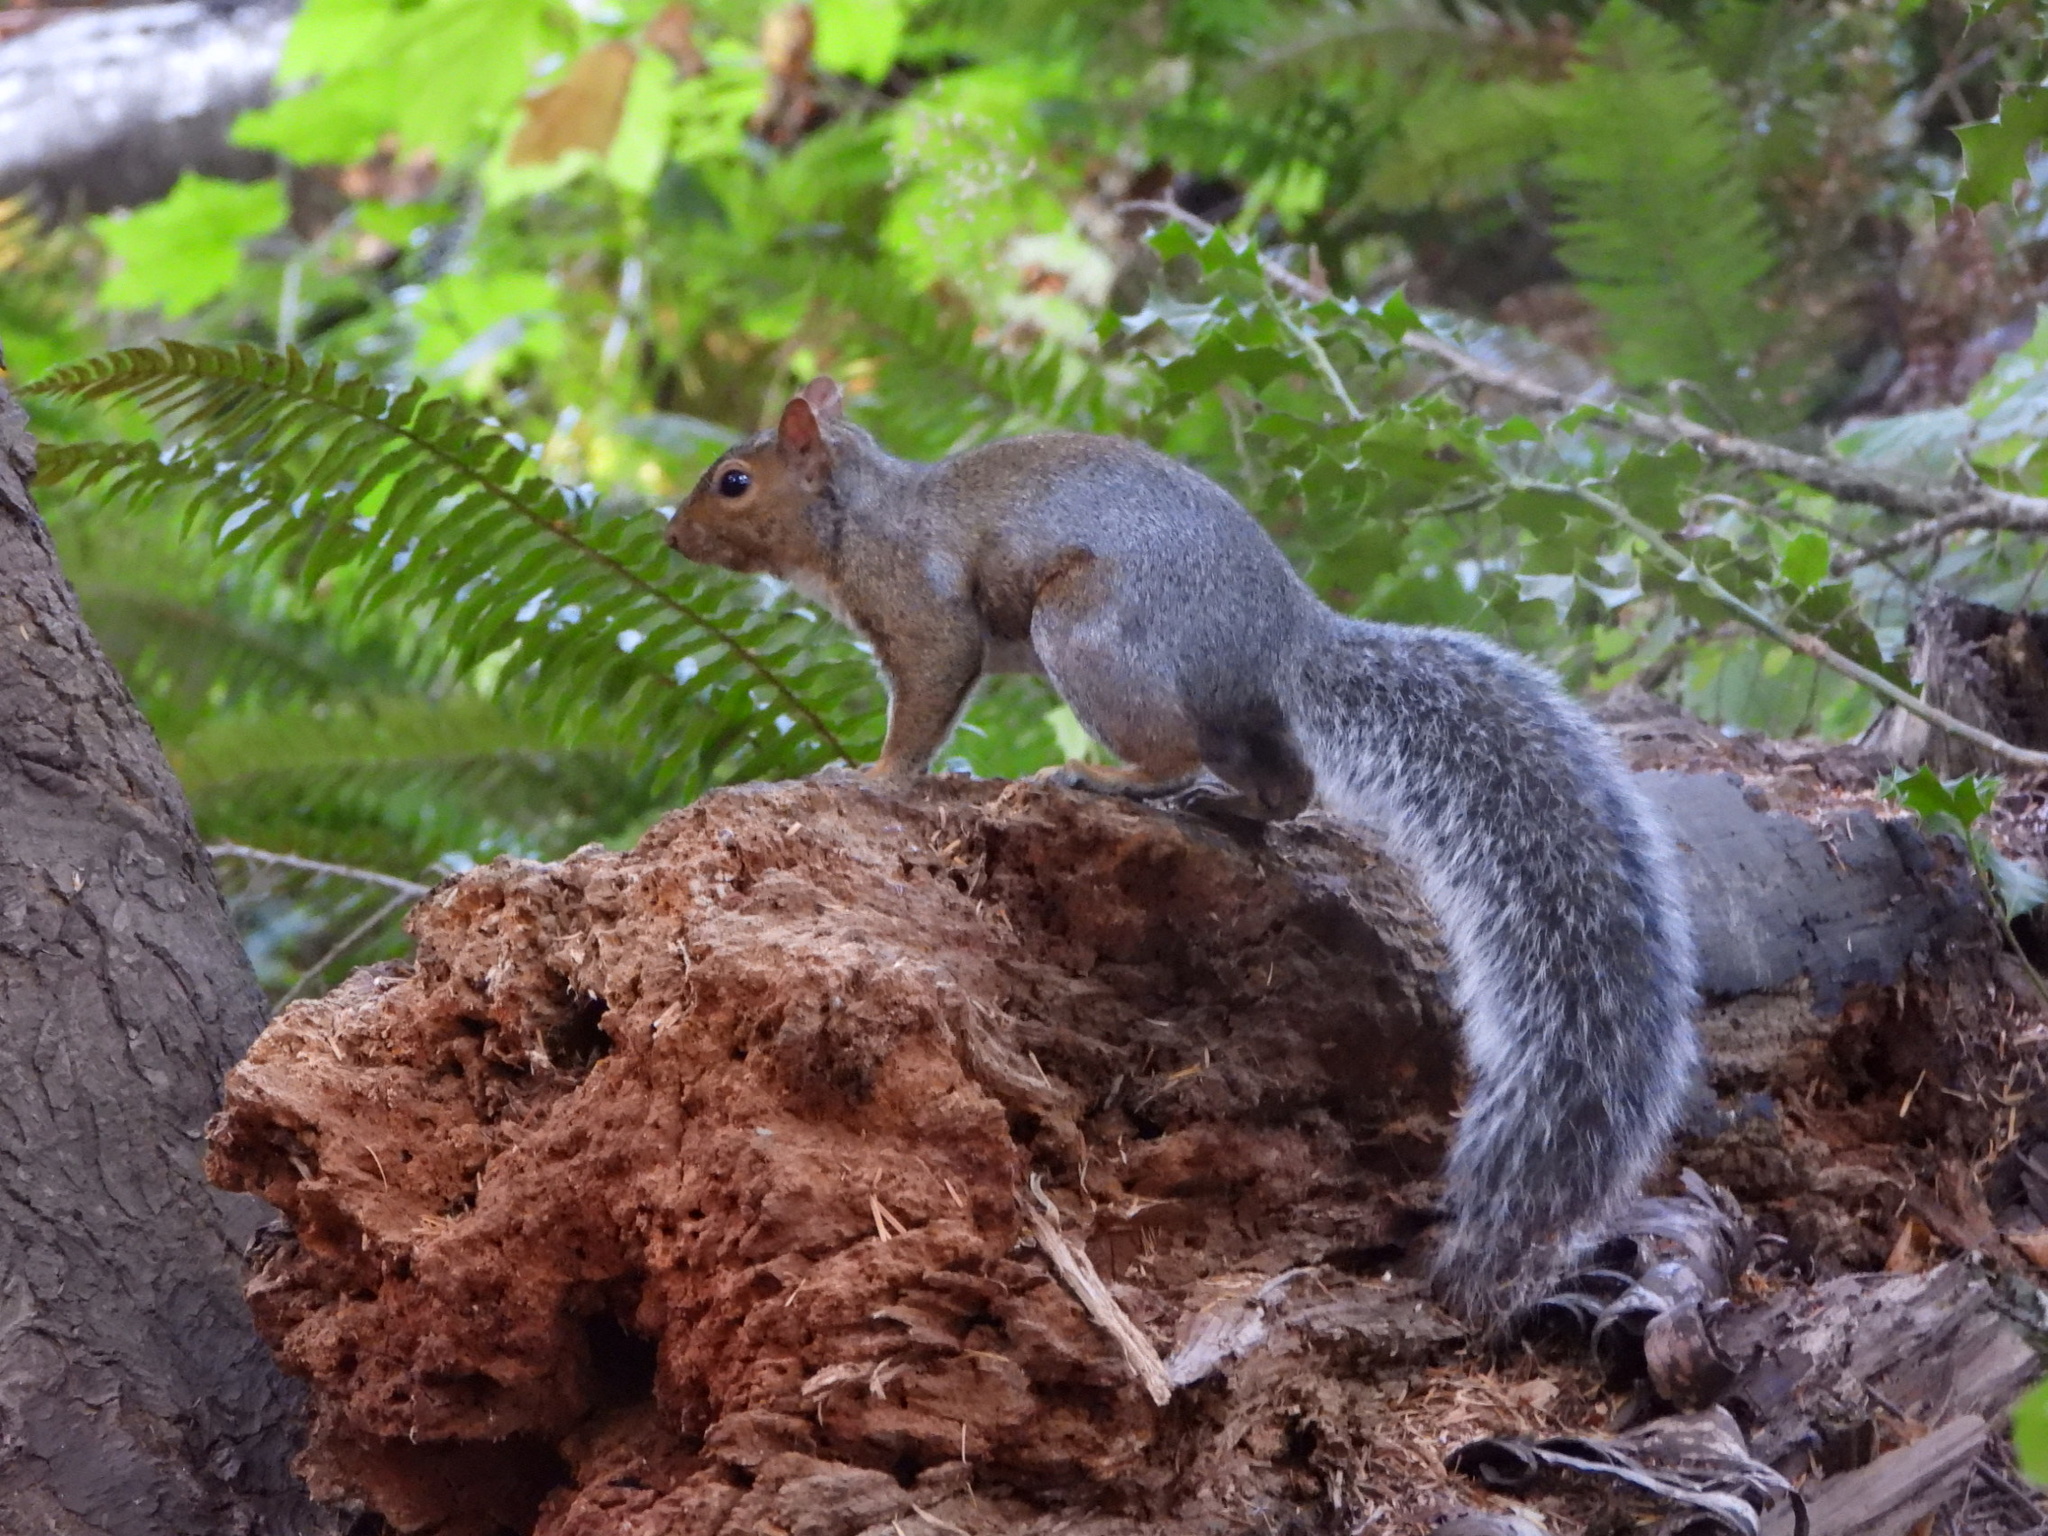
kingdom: Animalia
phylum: Chordata
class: Mammalia
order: Rodentia
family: Sciuridae
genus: Sciurus
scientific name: Sciurus carolinensis
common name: Eastern gray squirrel
